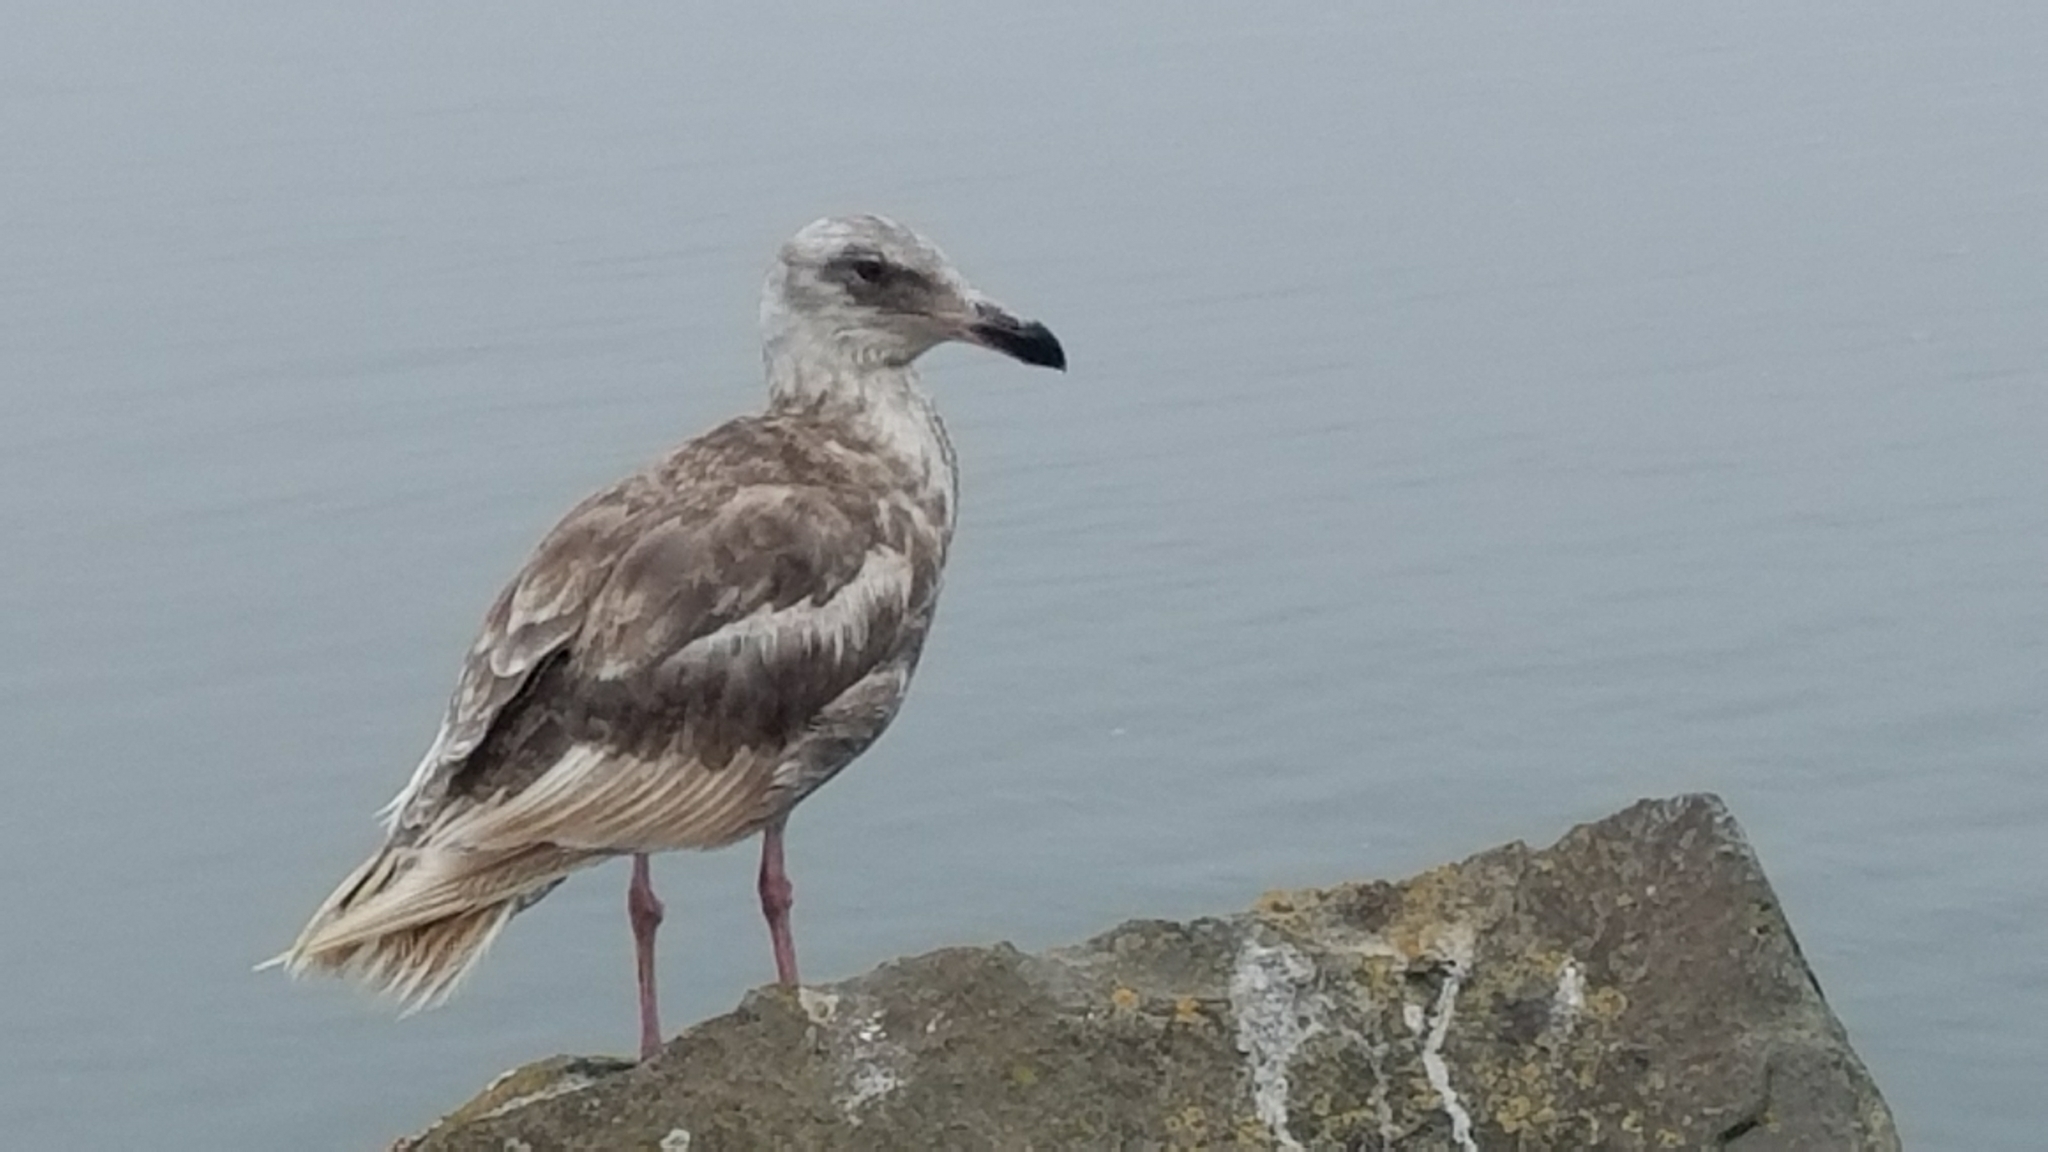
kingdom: Animalia
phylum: Chordata
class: Aves
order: Charadriiformes
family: Laridae
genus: Larus
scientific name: Larus
